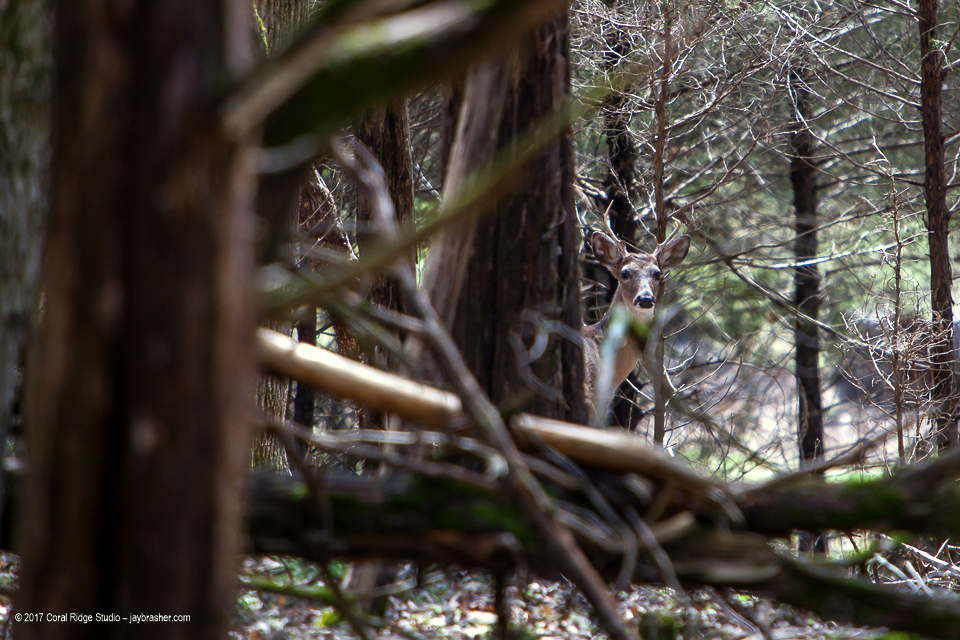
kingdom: Animalia
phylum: Chordata
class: Mammalia
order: Artiodactyla
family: Cervidae
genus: Odocoileus
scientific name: Odocoileus virginianus
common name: White-tailed deer
